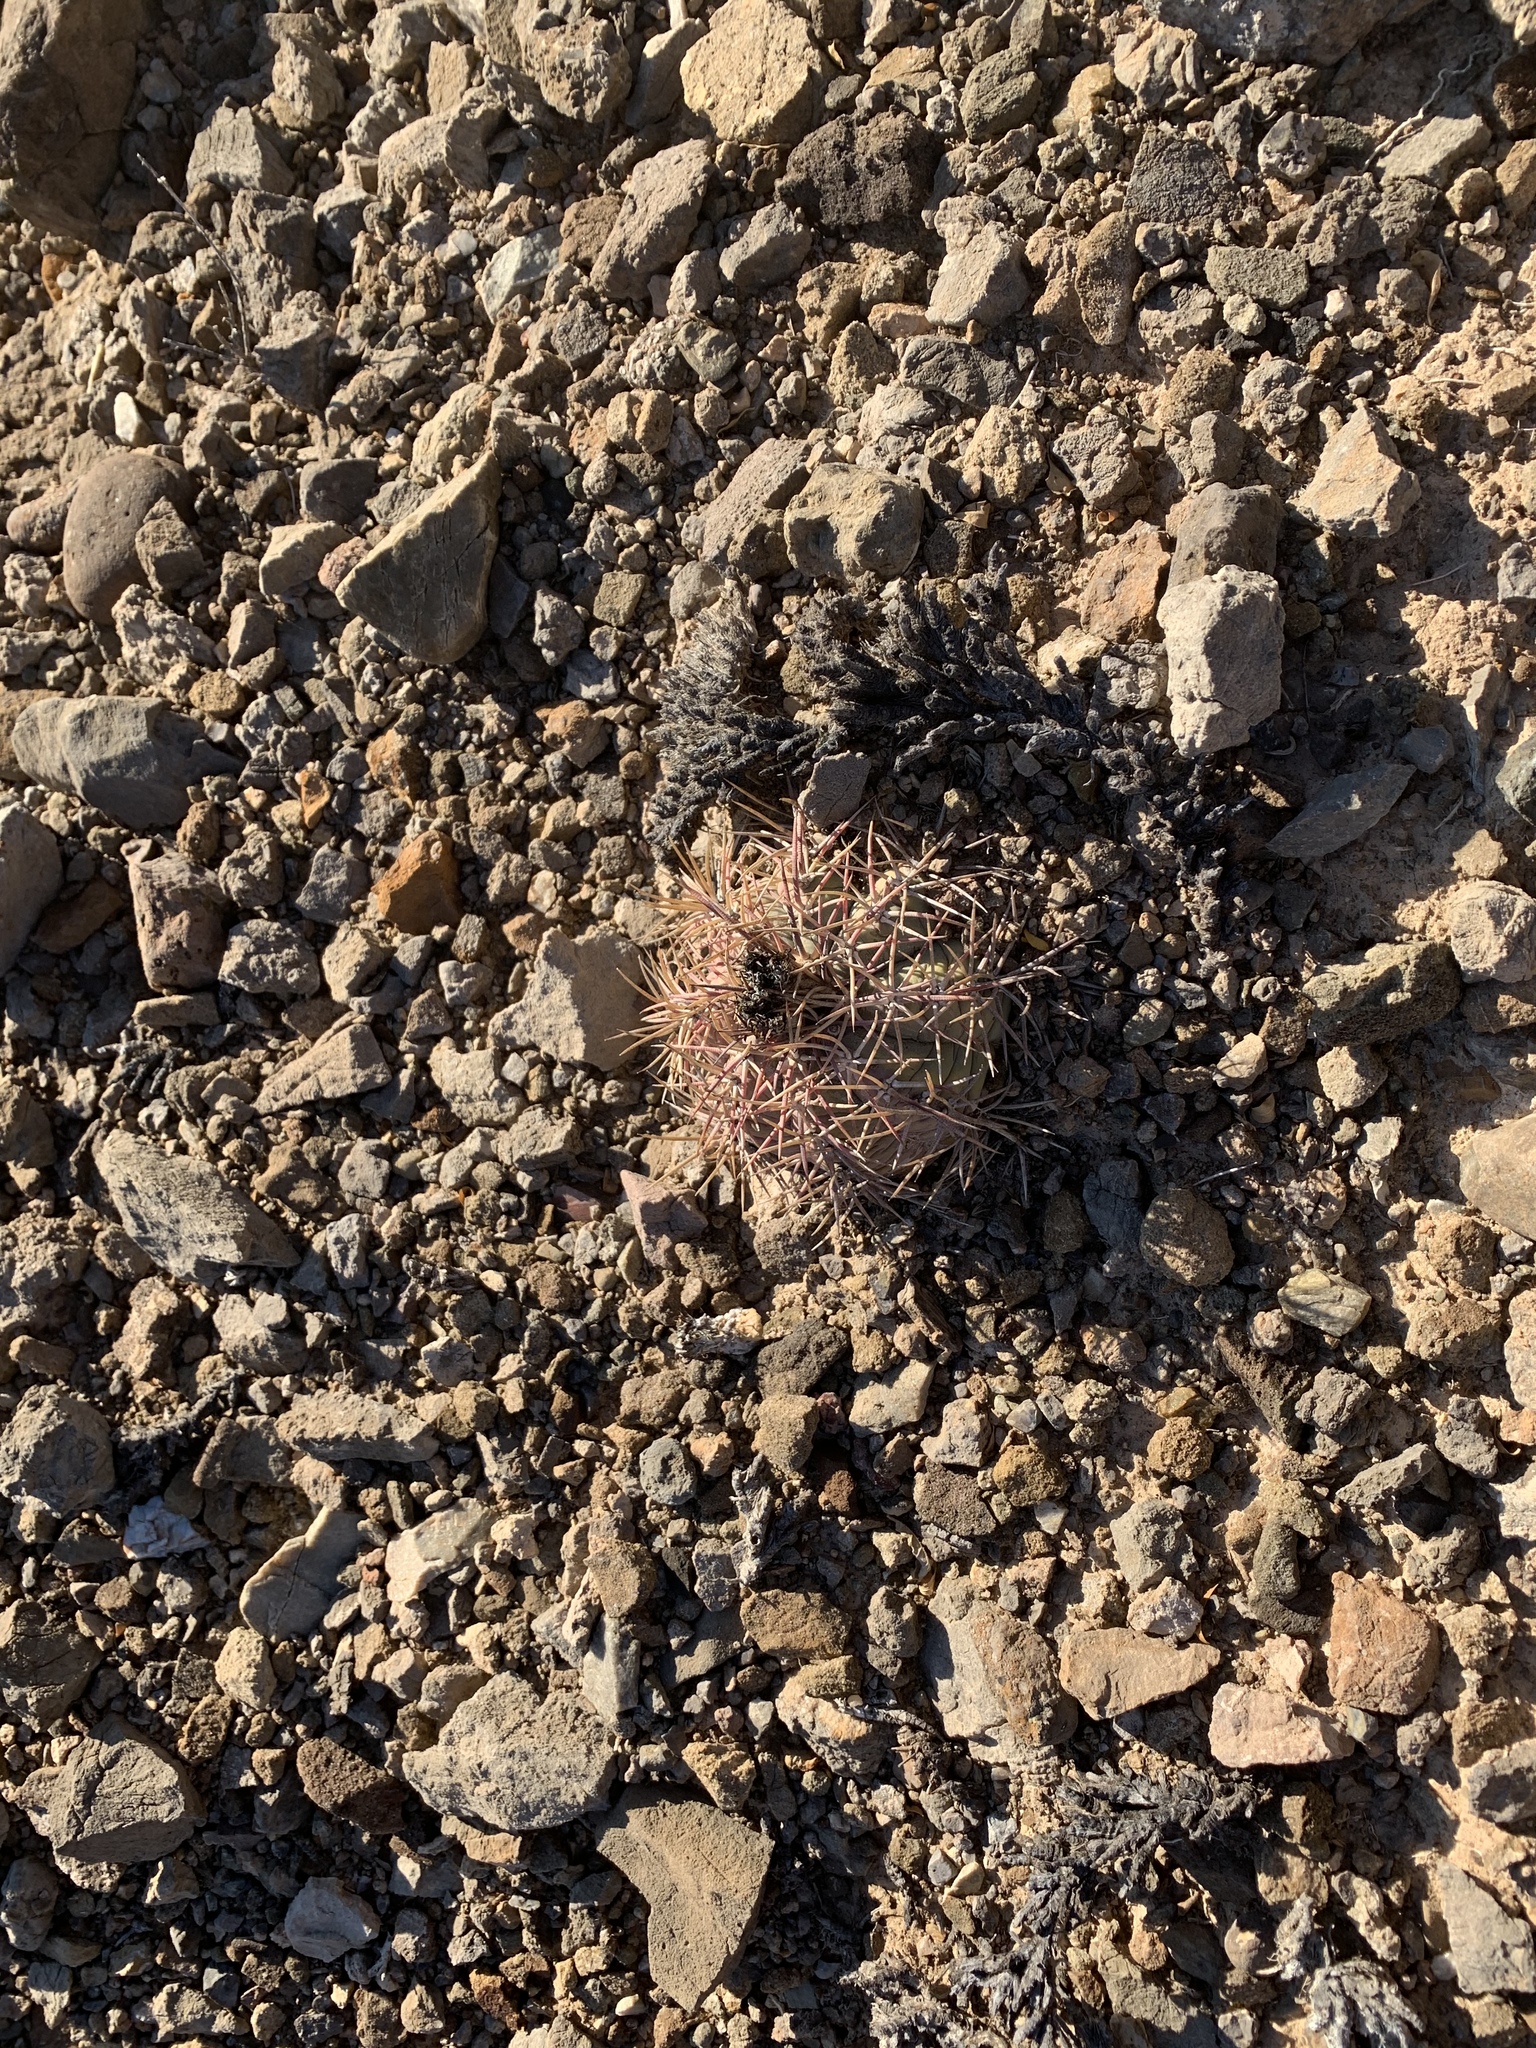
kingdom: Plantae
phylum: Tracheophyta
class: Magnoliopsida
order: Caryophyllales
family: Cactaceae
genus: Echinocactus
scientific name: Echinocactus horizonthalonius
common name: Devilshead
